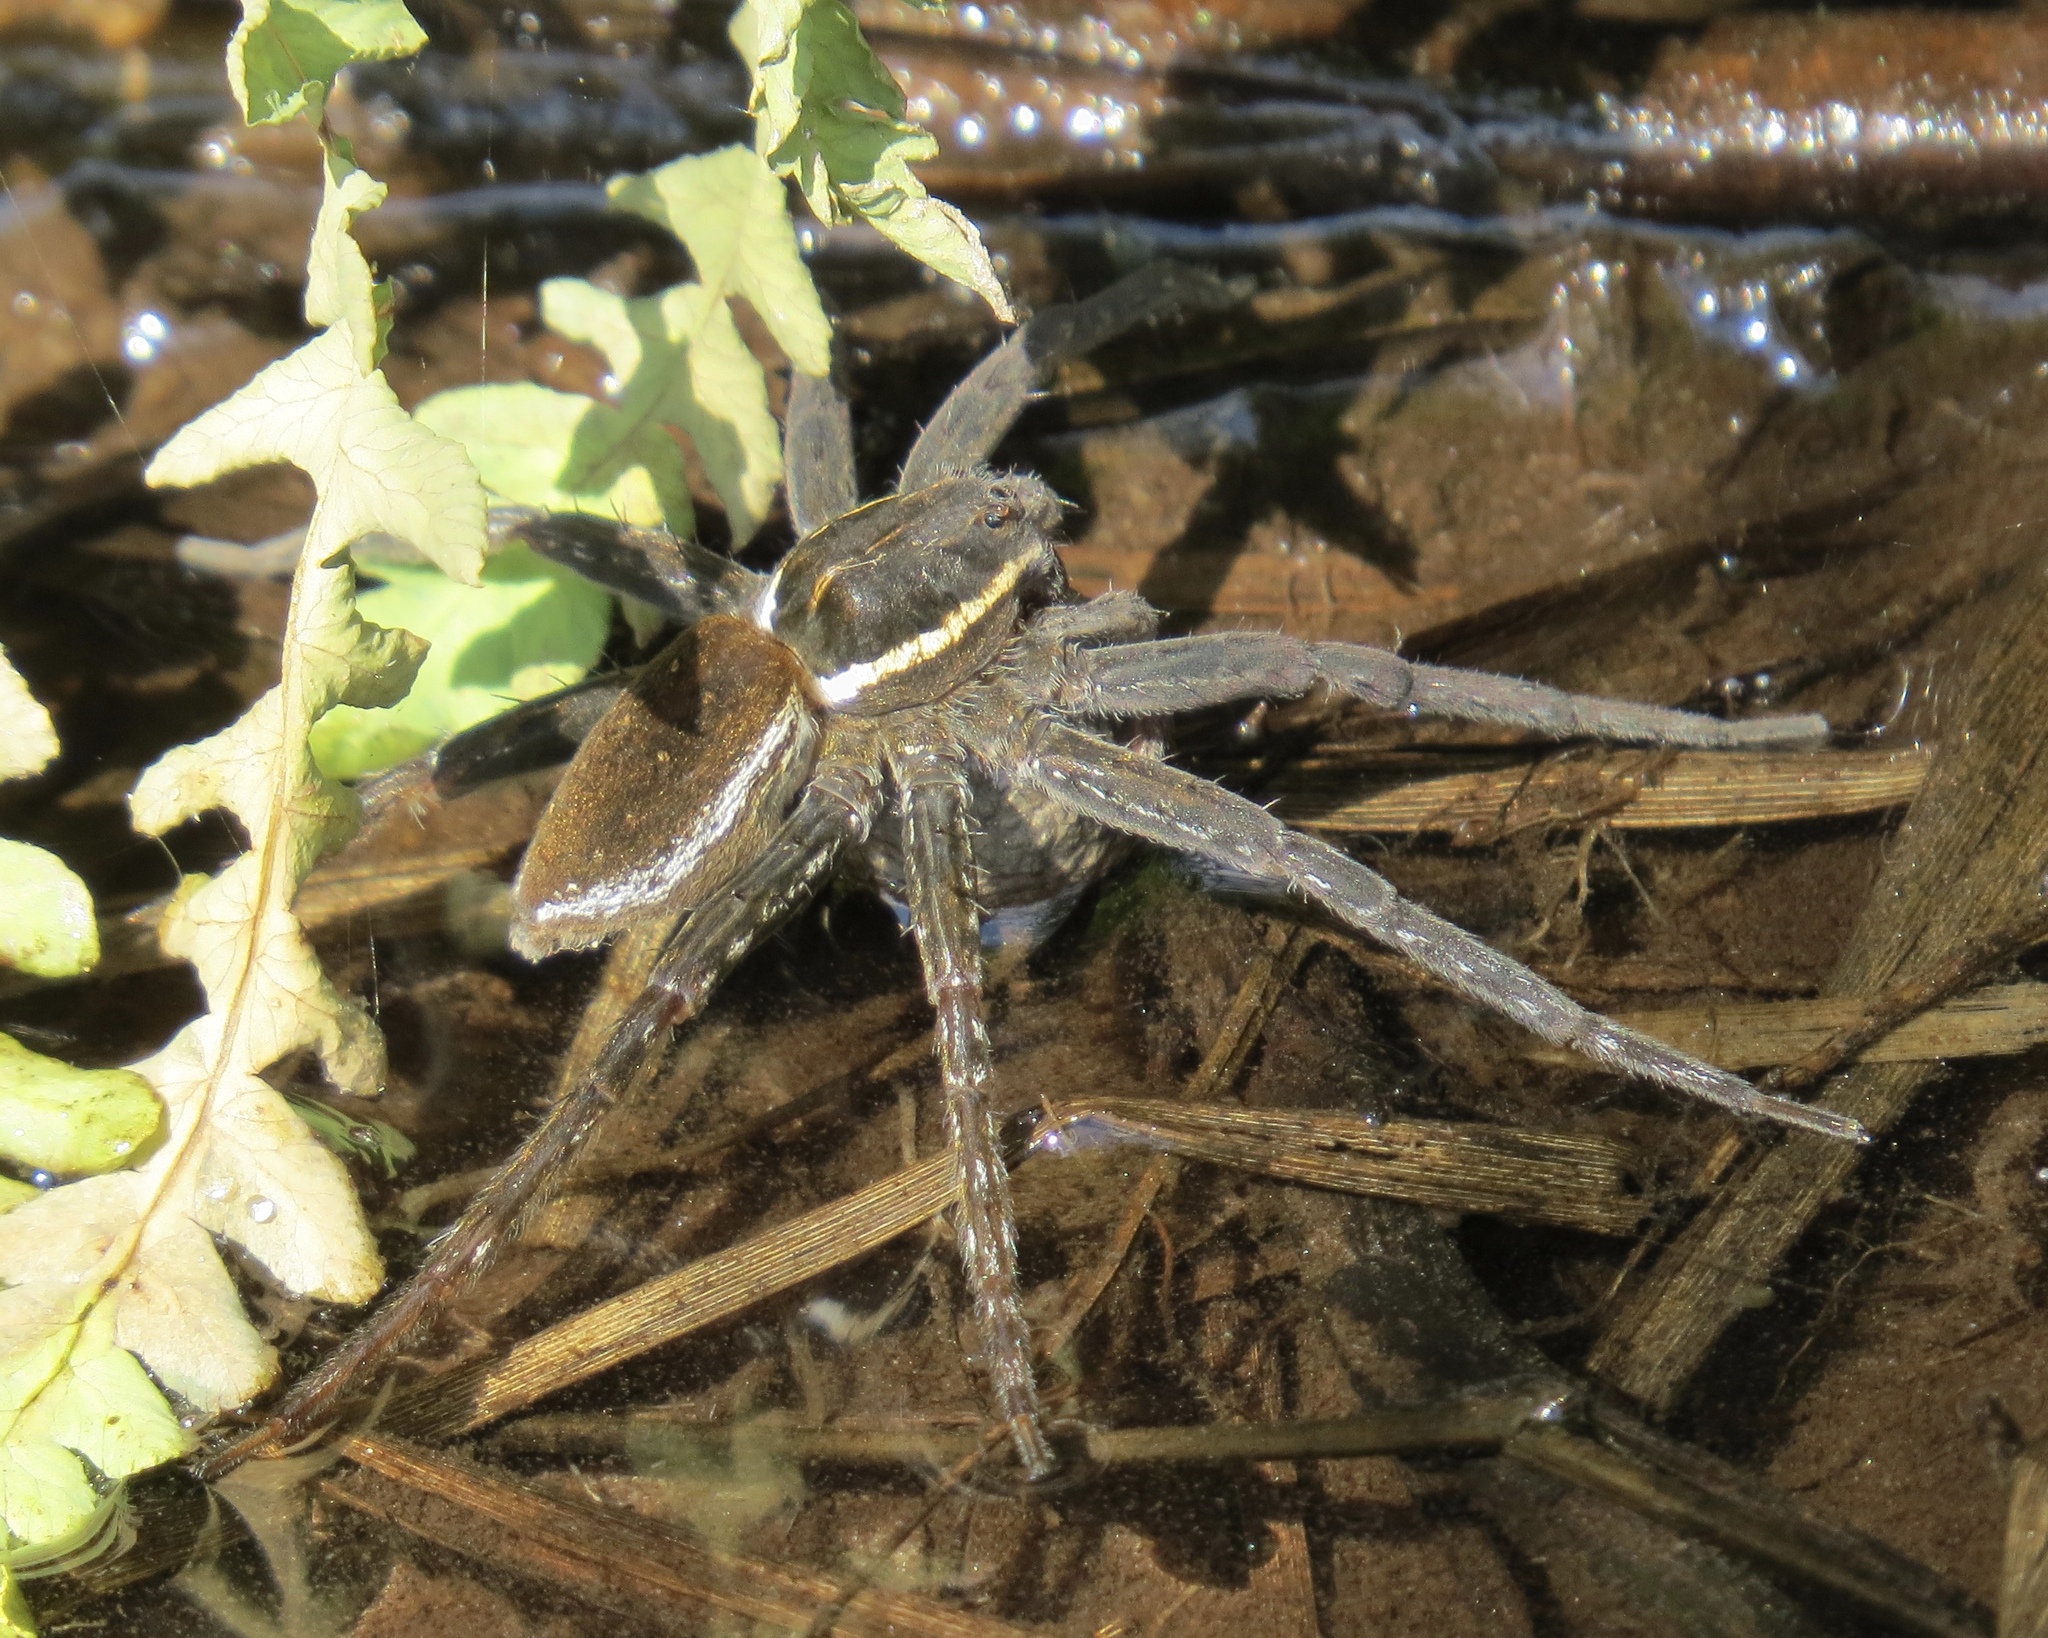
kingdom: Animalia
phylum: Arthropoda
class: Arachnida
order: Araneae
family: Pisauridae
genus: Dolomedes
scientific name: Dolomedes triton
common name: Six-spotted fishing spider
